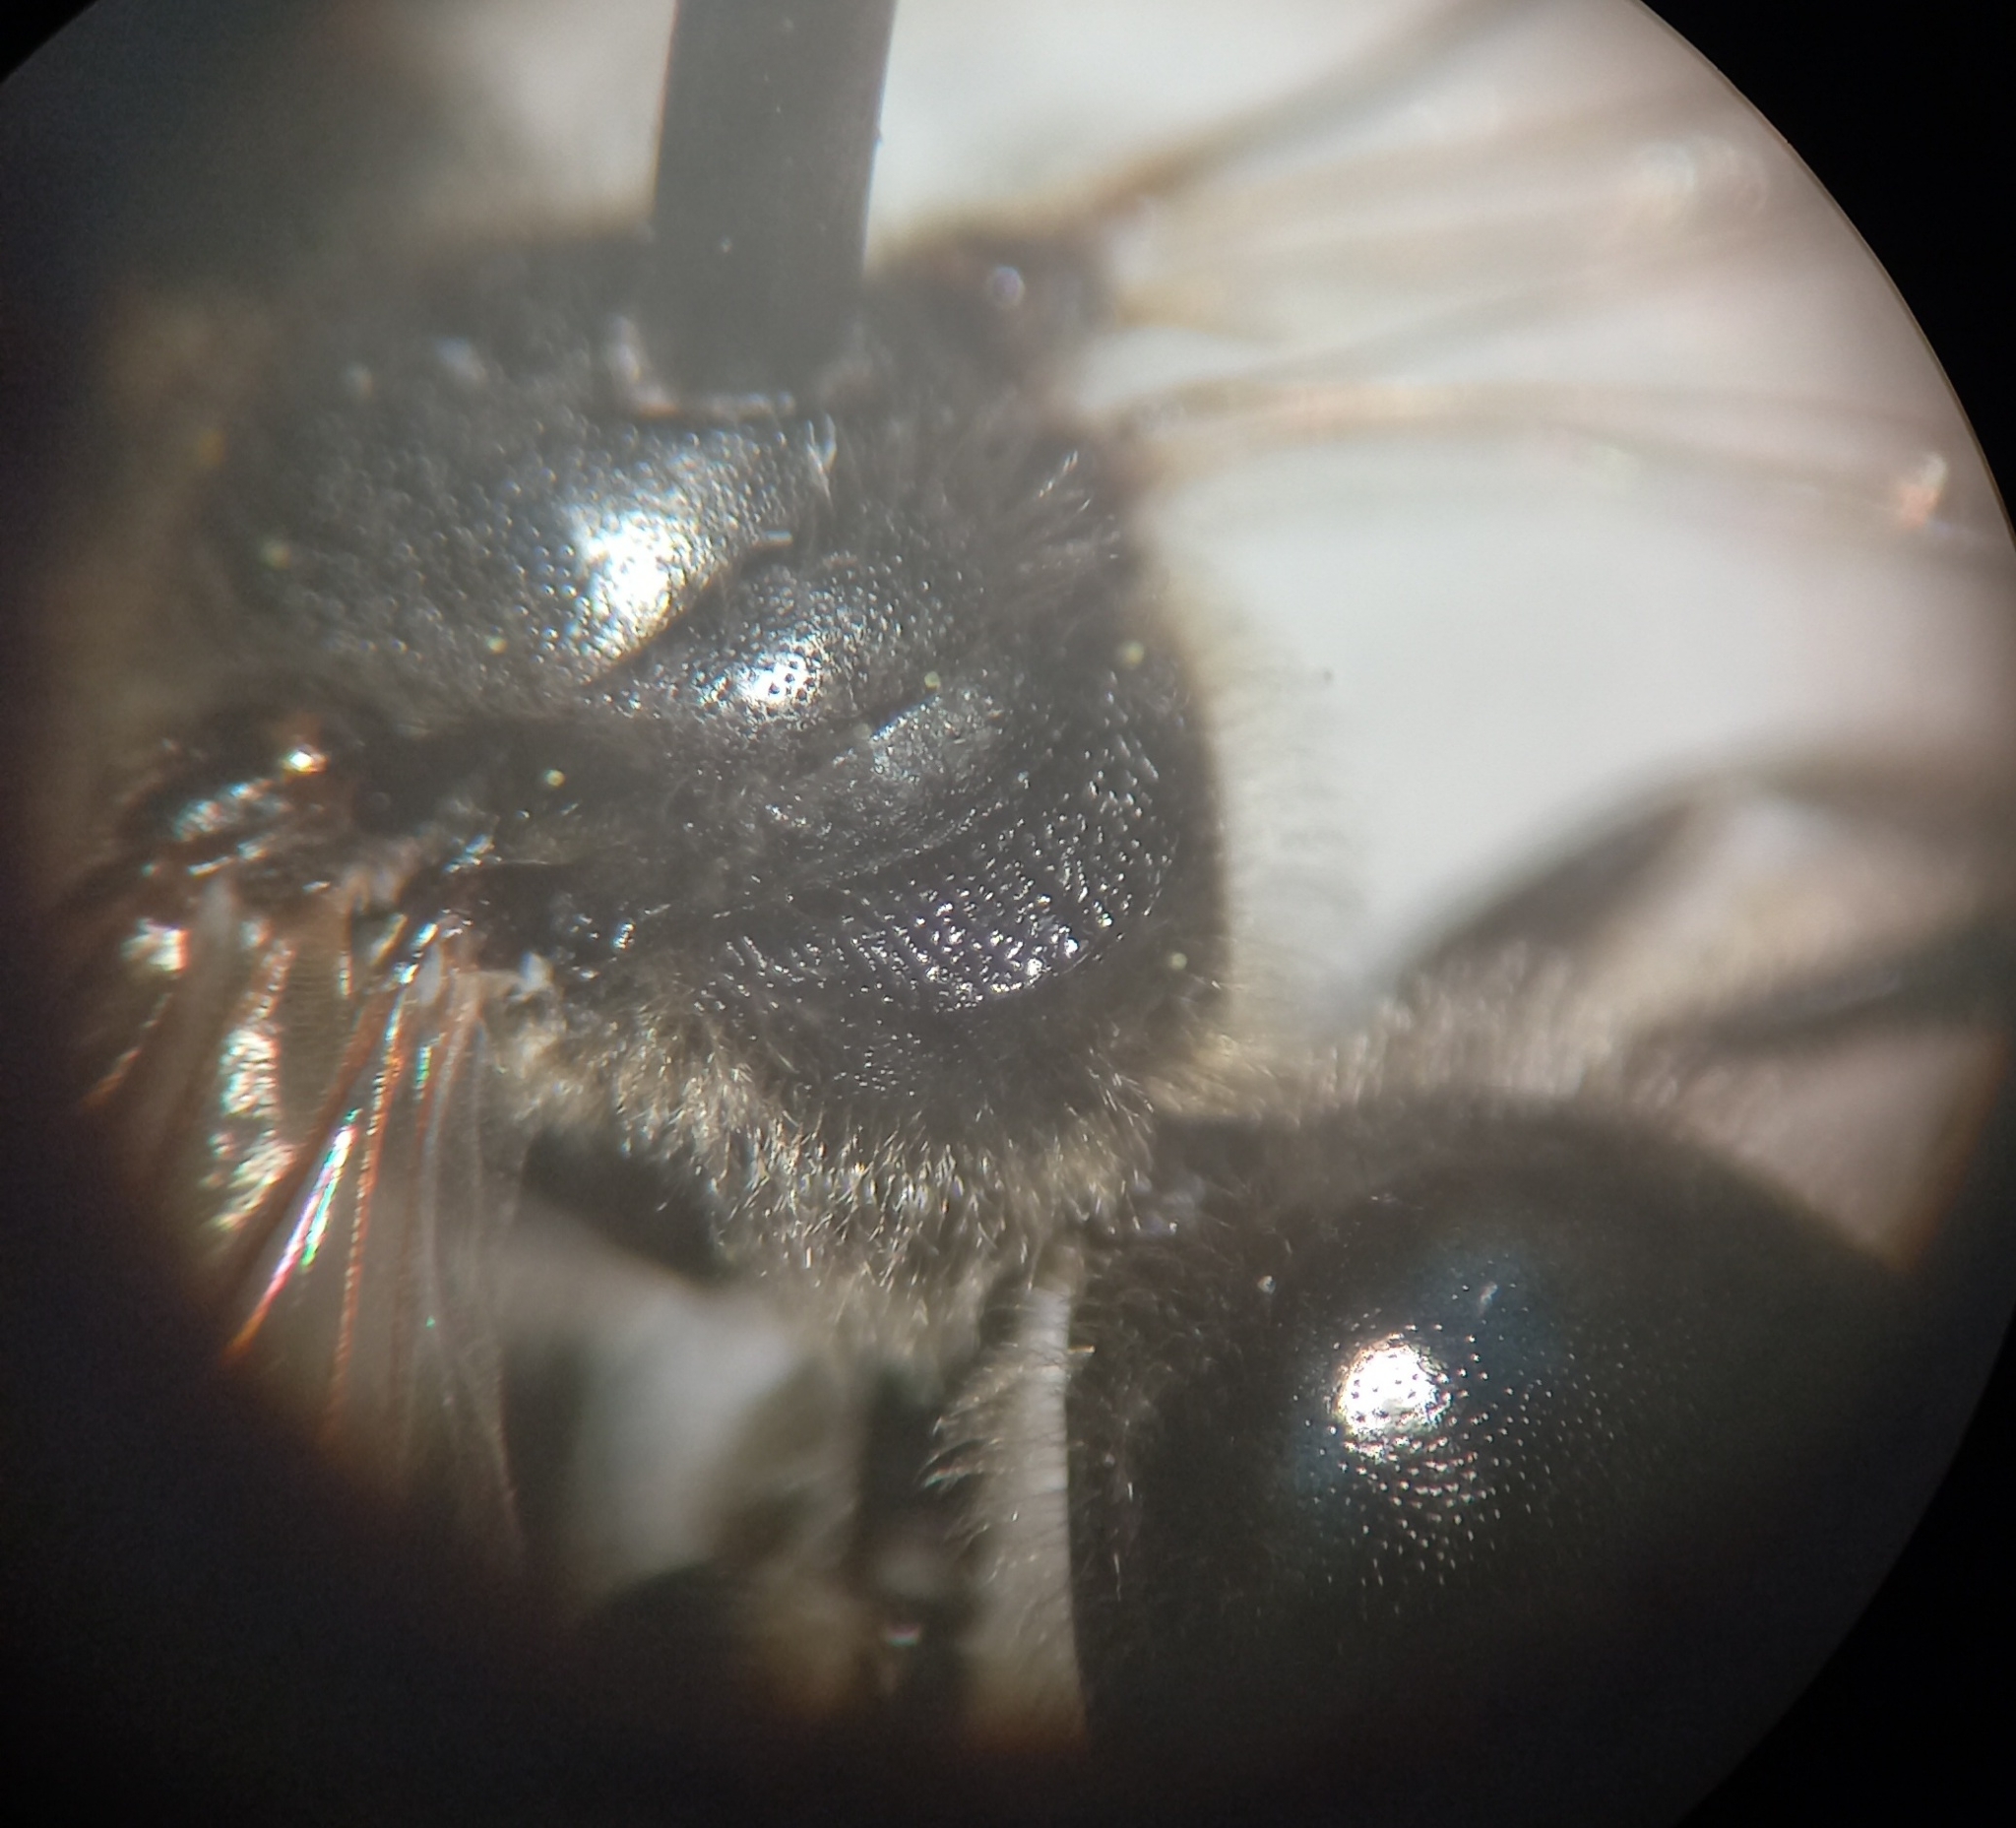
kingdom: Animalia
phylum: Arthropoda
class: Insecta
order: Hymenoptera
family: Halictidae
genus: Lasioglossum
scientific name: Lasioglossum pallens
